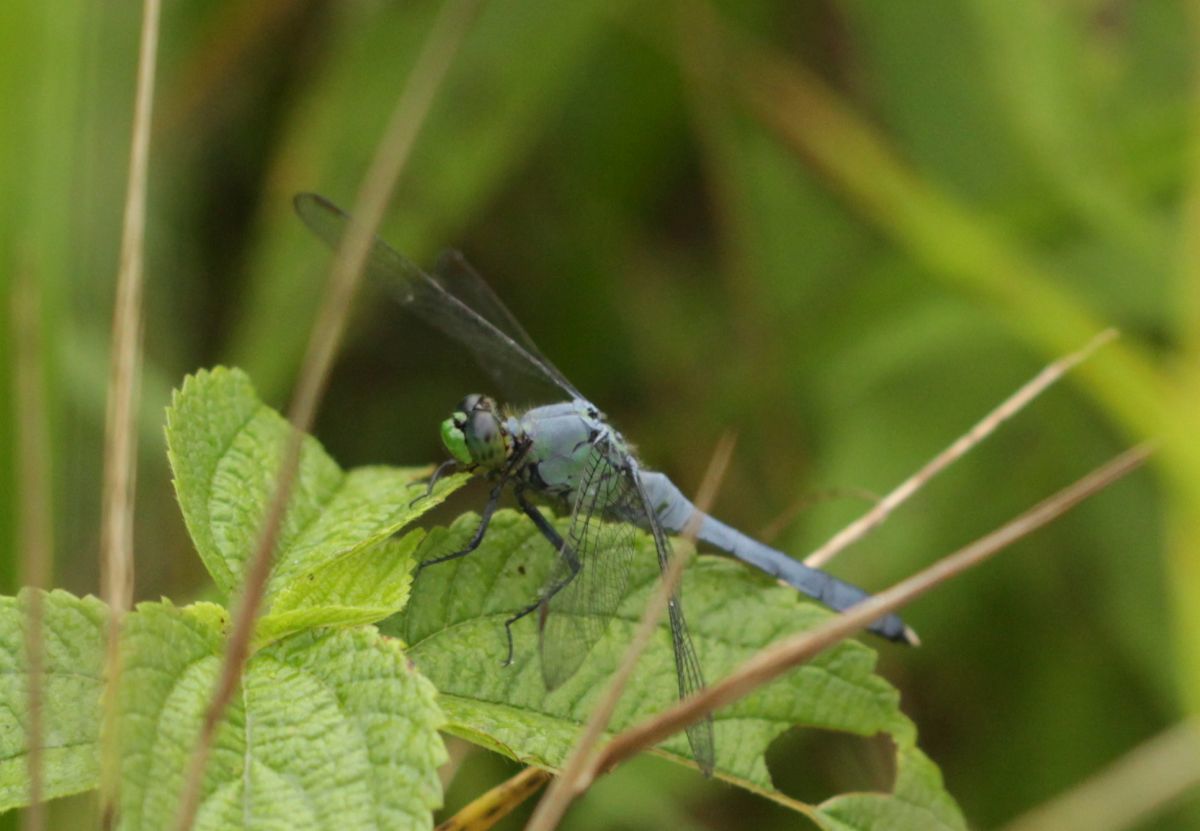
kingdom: Animalia
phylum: Arthropoda
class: Insecta
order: Odonata
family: Libellulidae
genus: Erythemis
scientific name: Erythemis simplicicollis
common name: Eastern pondhawk
